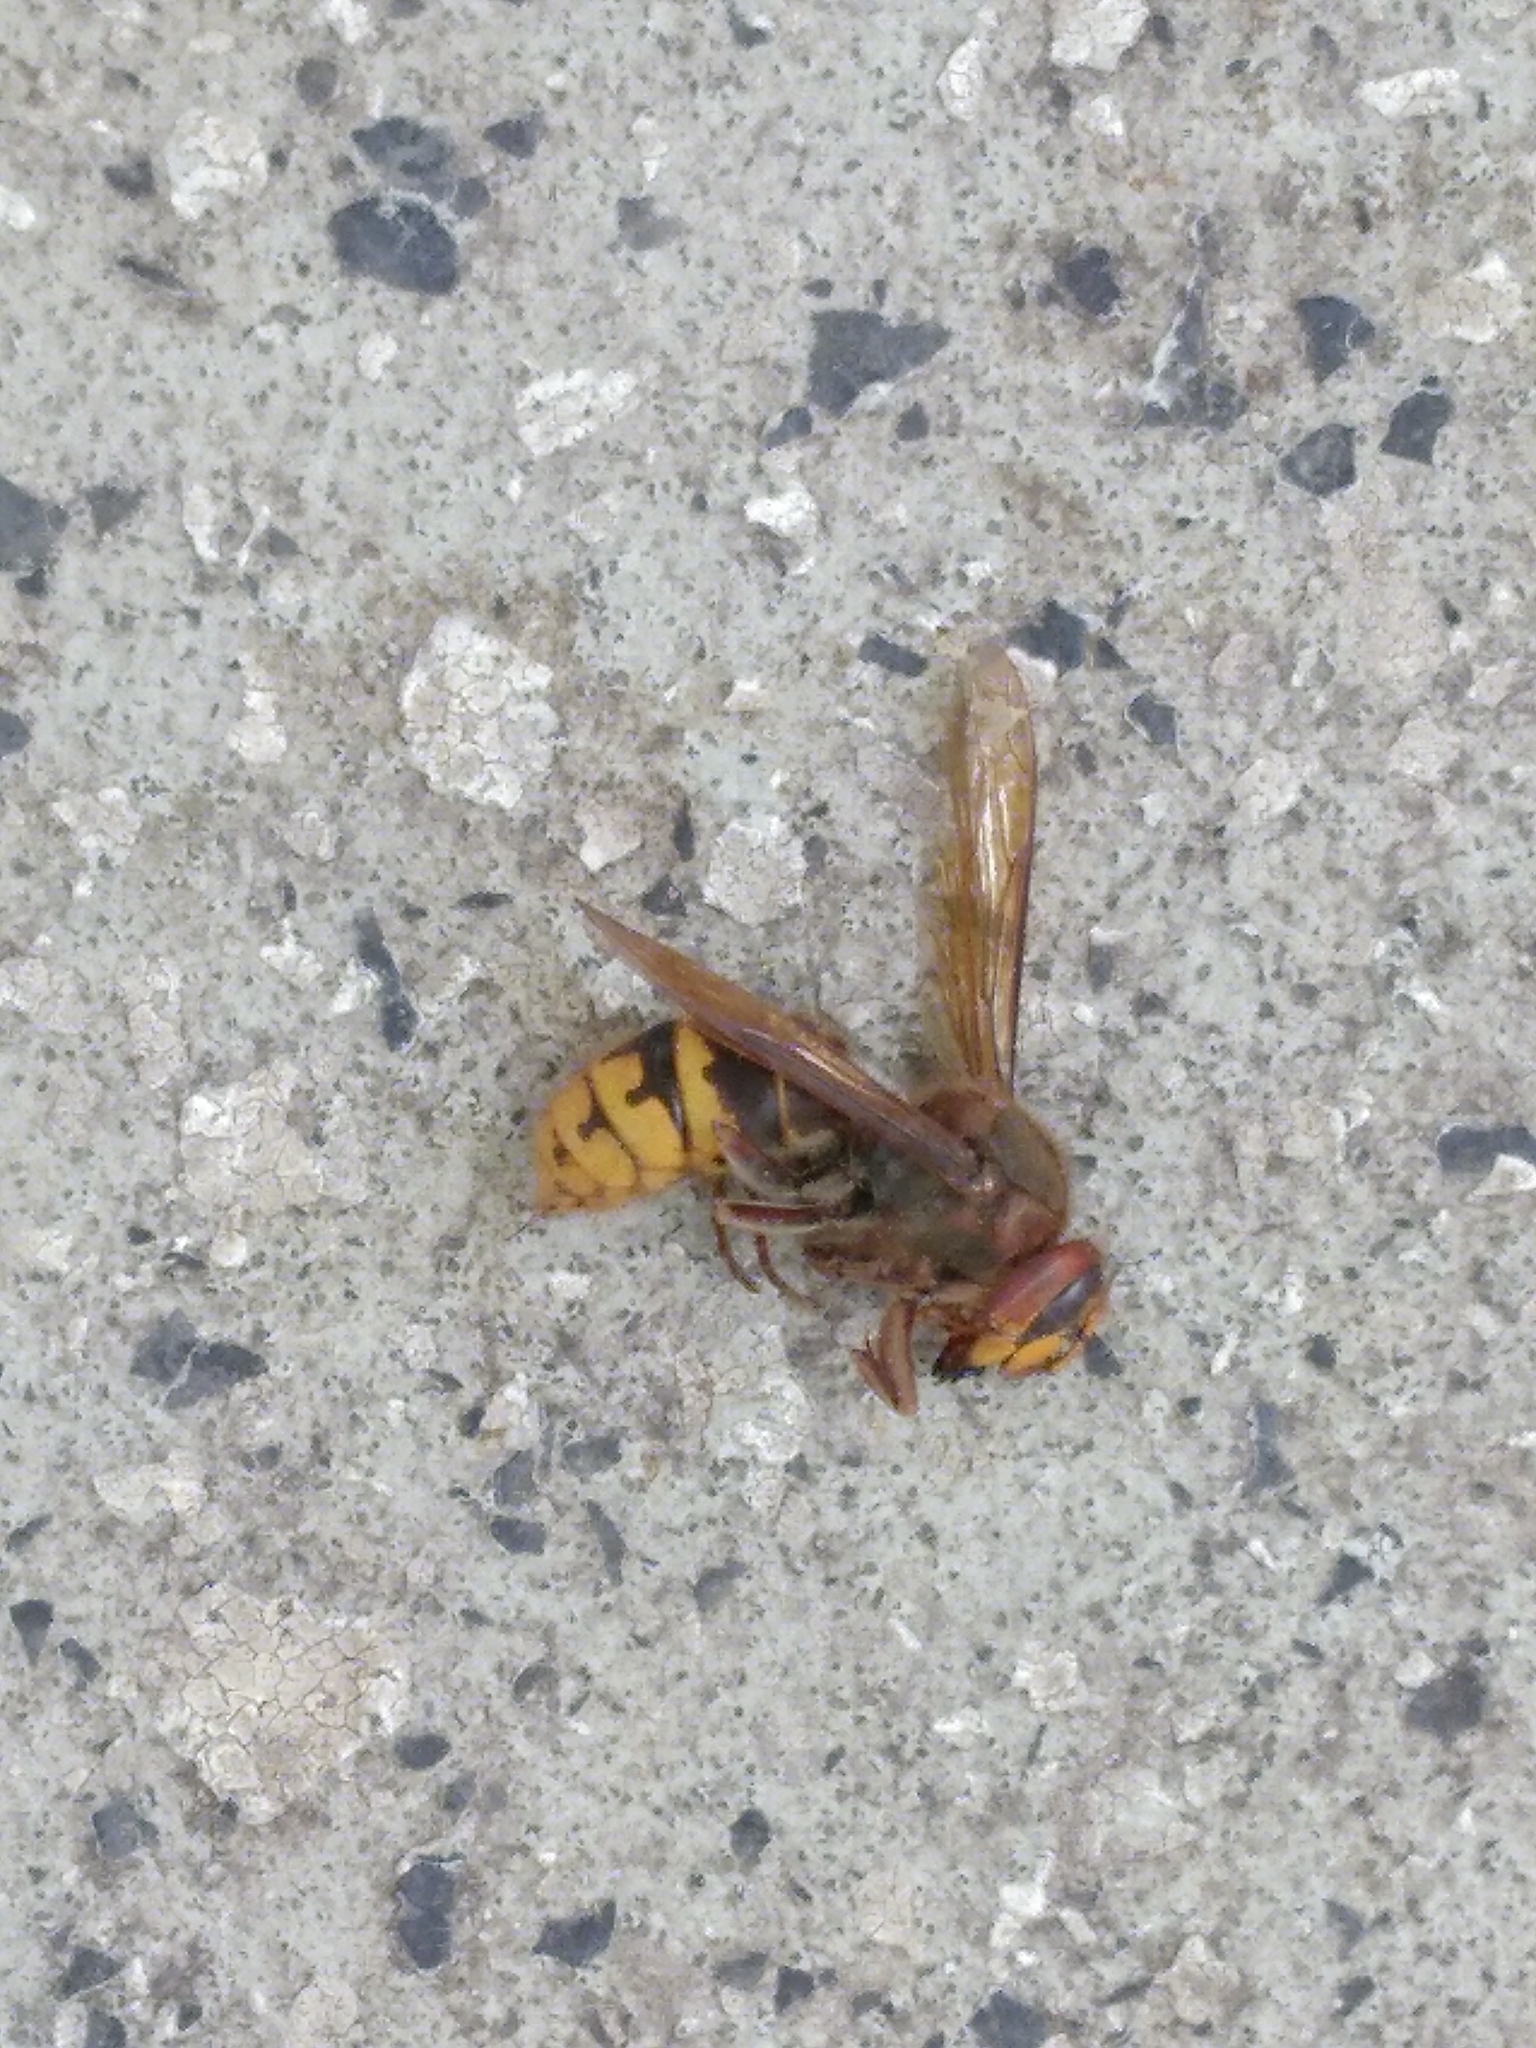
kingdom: Animalia
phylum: Arthropoda
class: Insecta
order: Hymenoptera
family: Vespidae
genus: Vespa
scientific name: Vespa crabro
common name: Hornet
